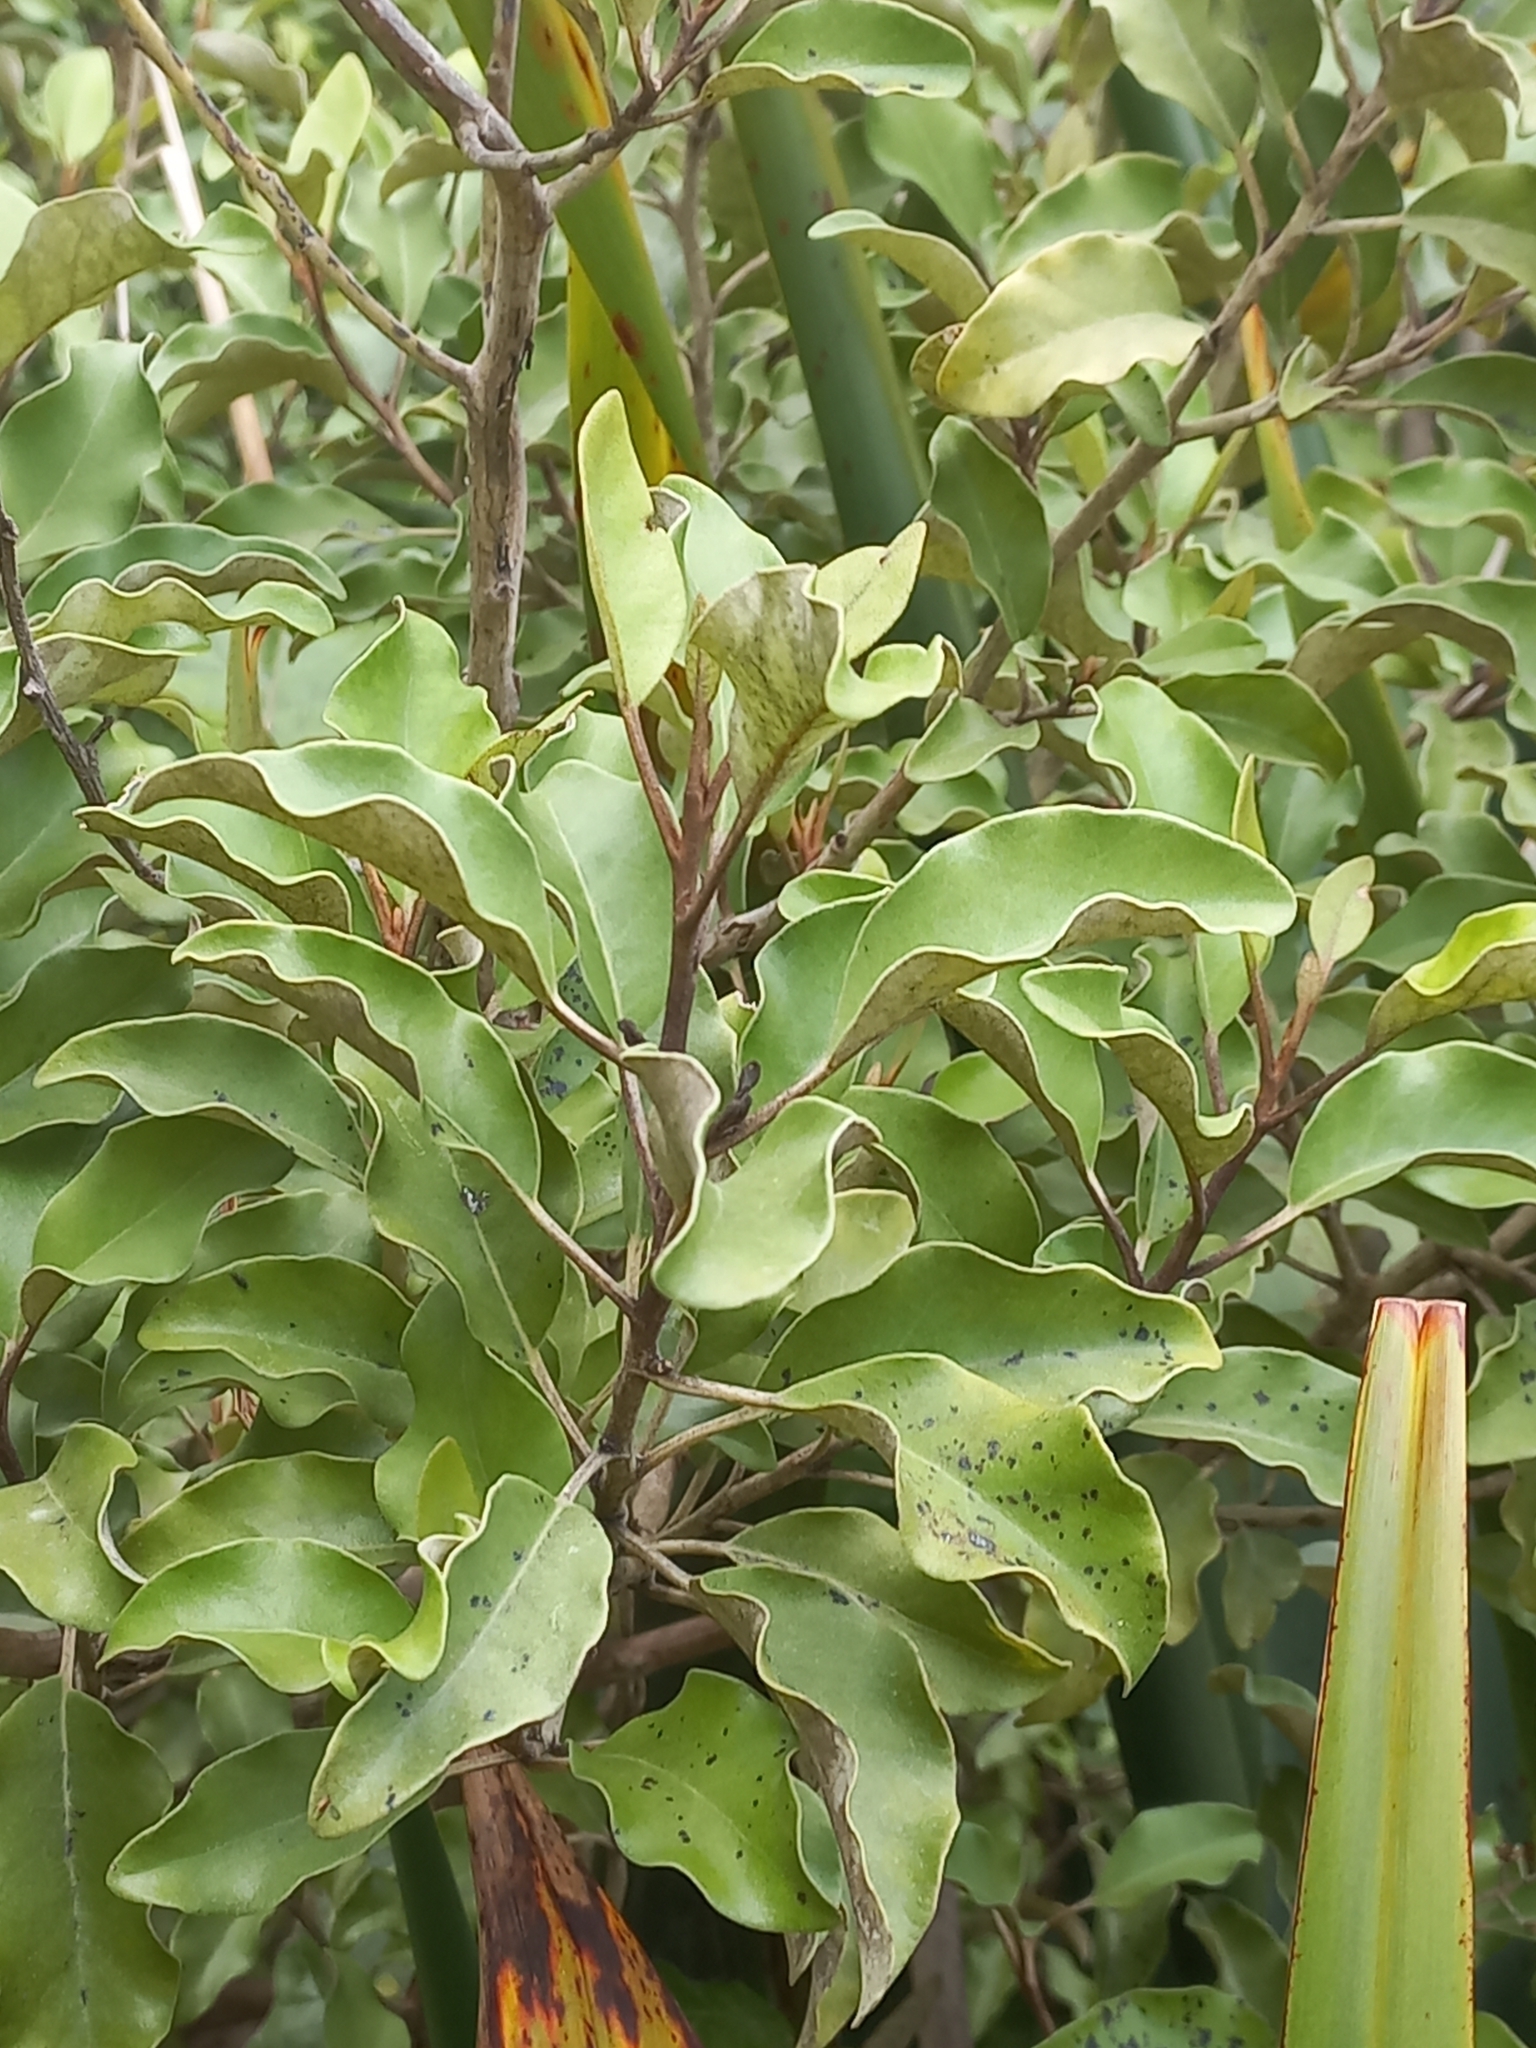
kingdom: Plantae
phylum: Tracheophyta
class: Magnoliopsida
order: Asterales
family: Asteraceae
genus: Olearia
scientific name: Olearia paniculata
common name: Akiraho
